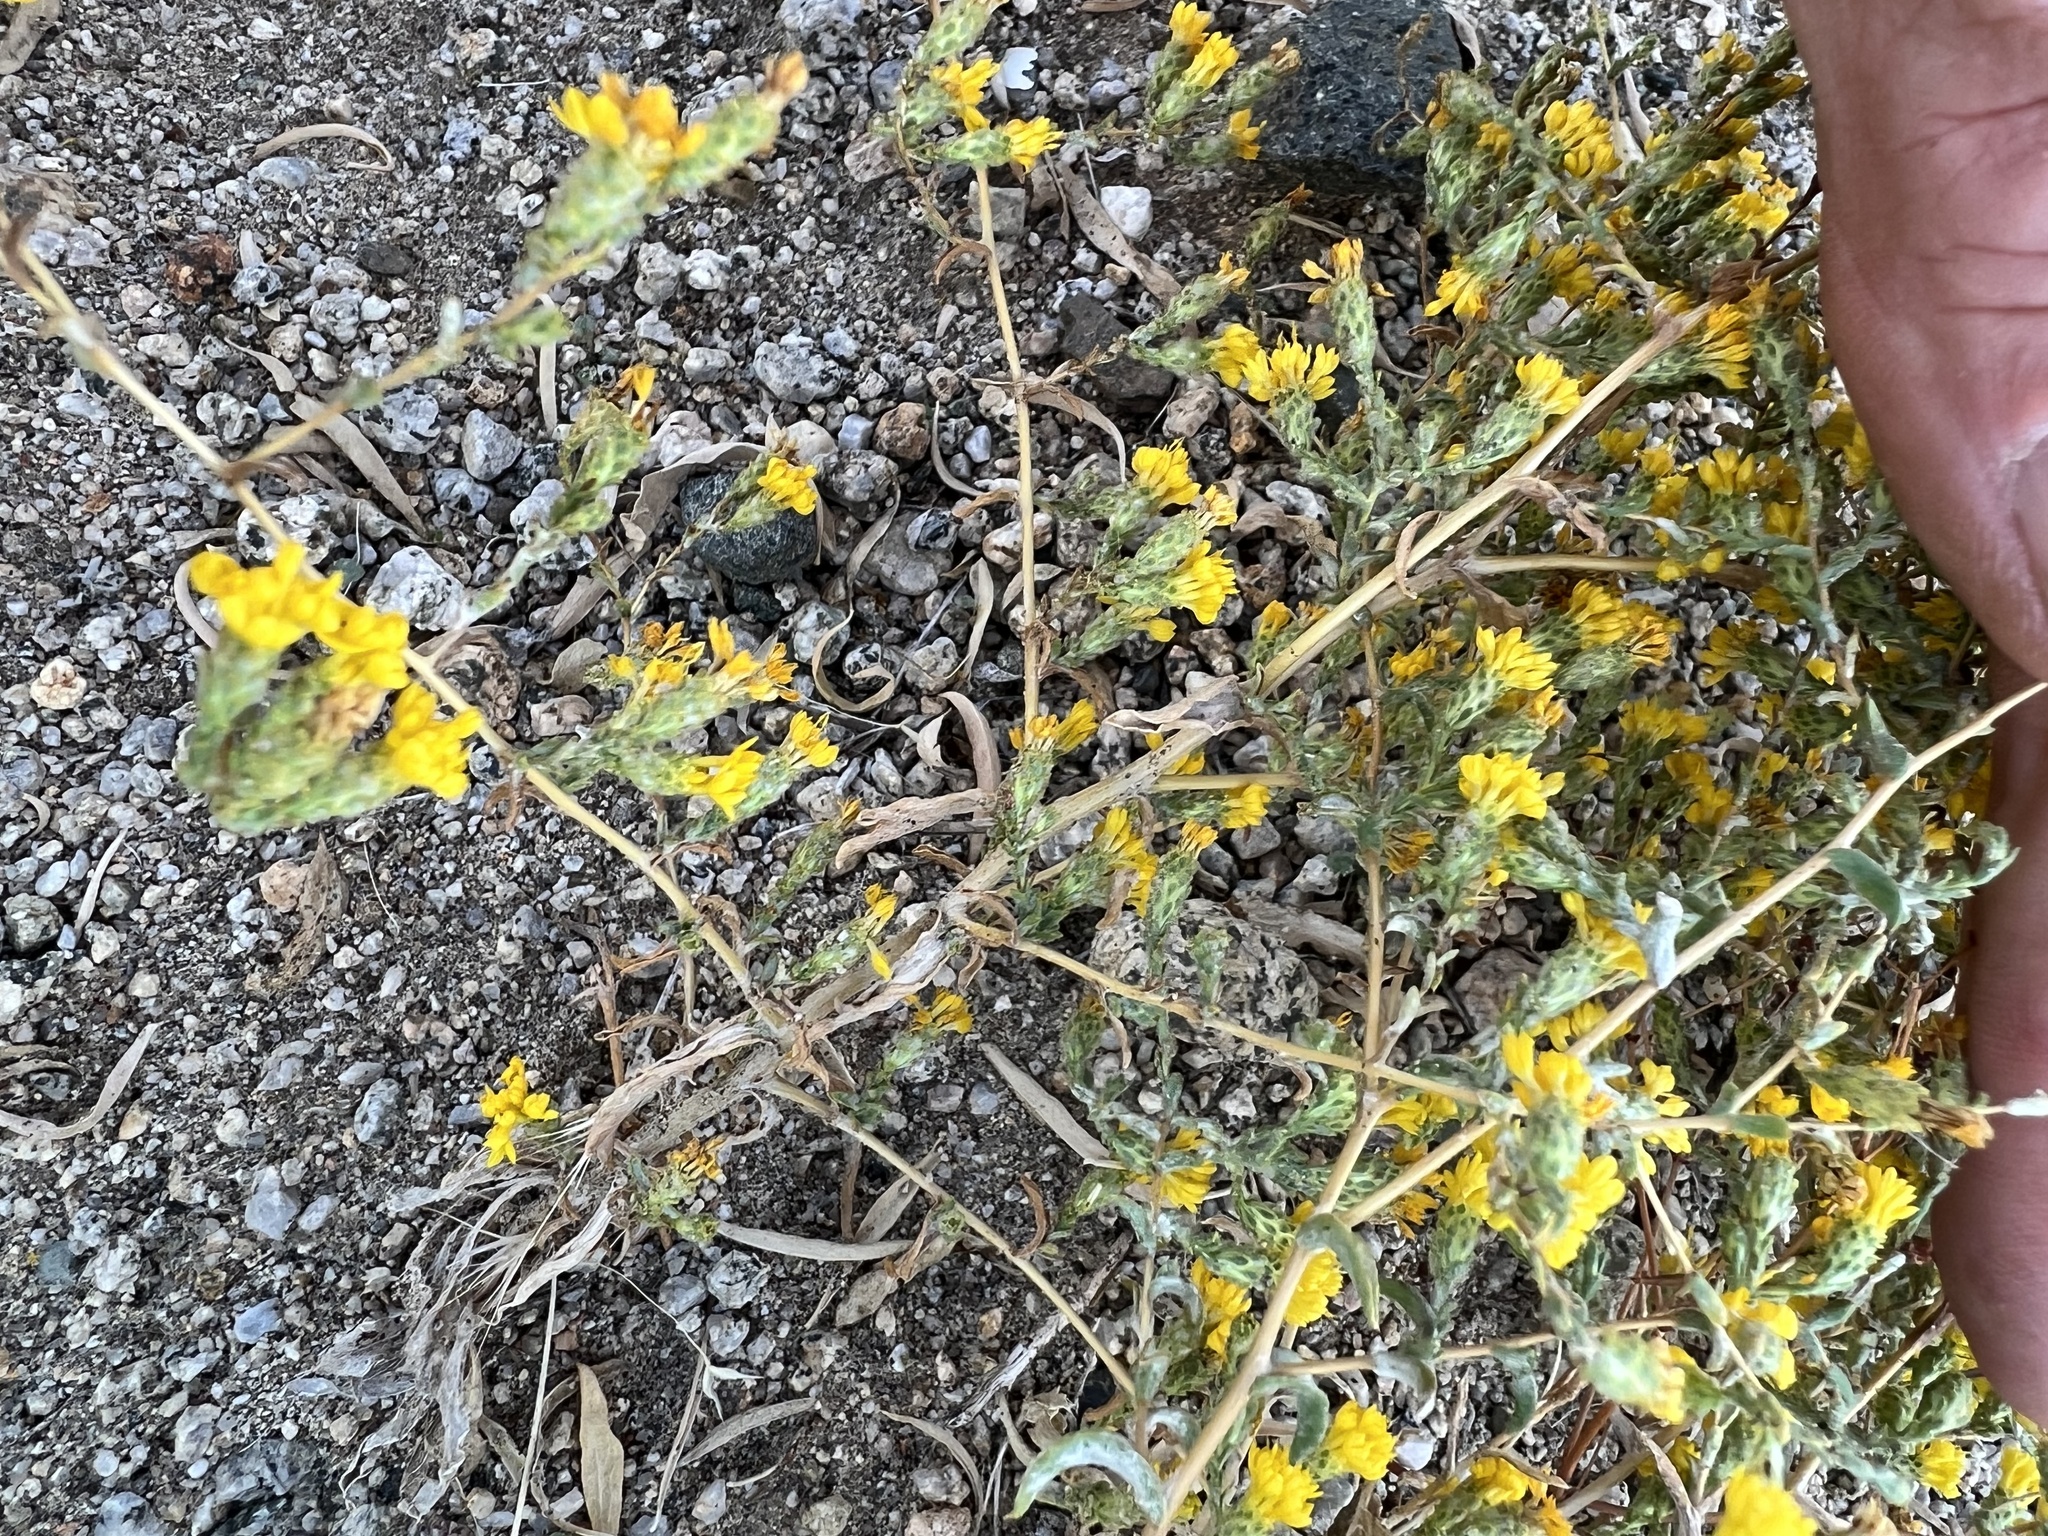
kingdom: Plantae
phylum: Tracheophyta
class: Magnoliopsida
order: Asterales
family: Asteraceae
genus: Lessingia
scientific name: Lessingia glandulifera
